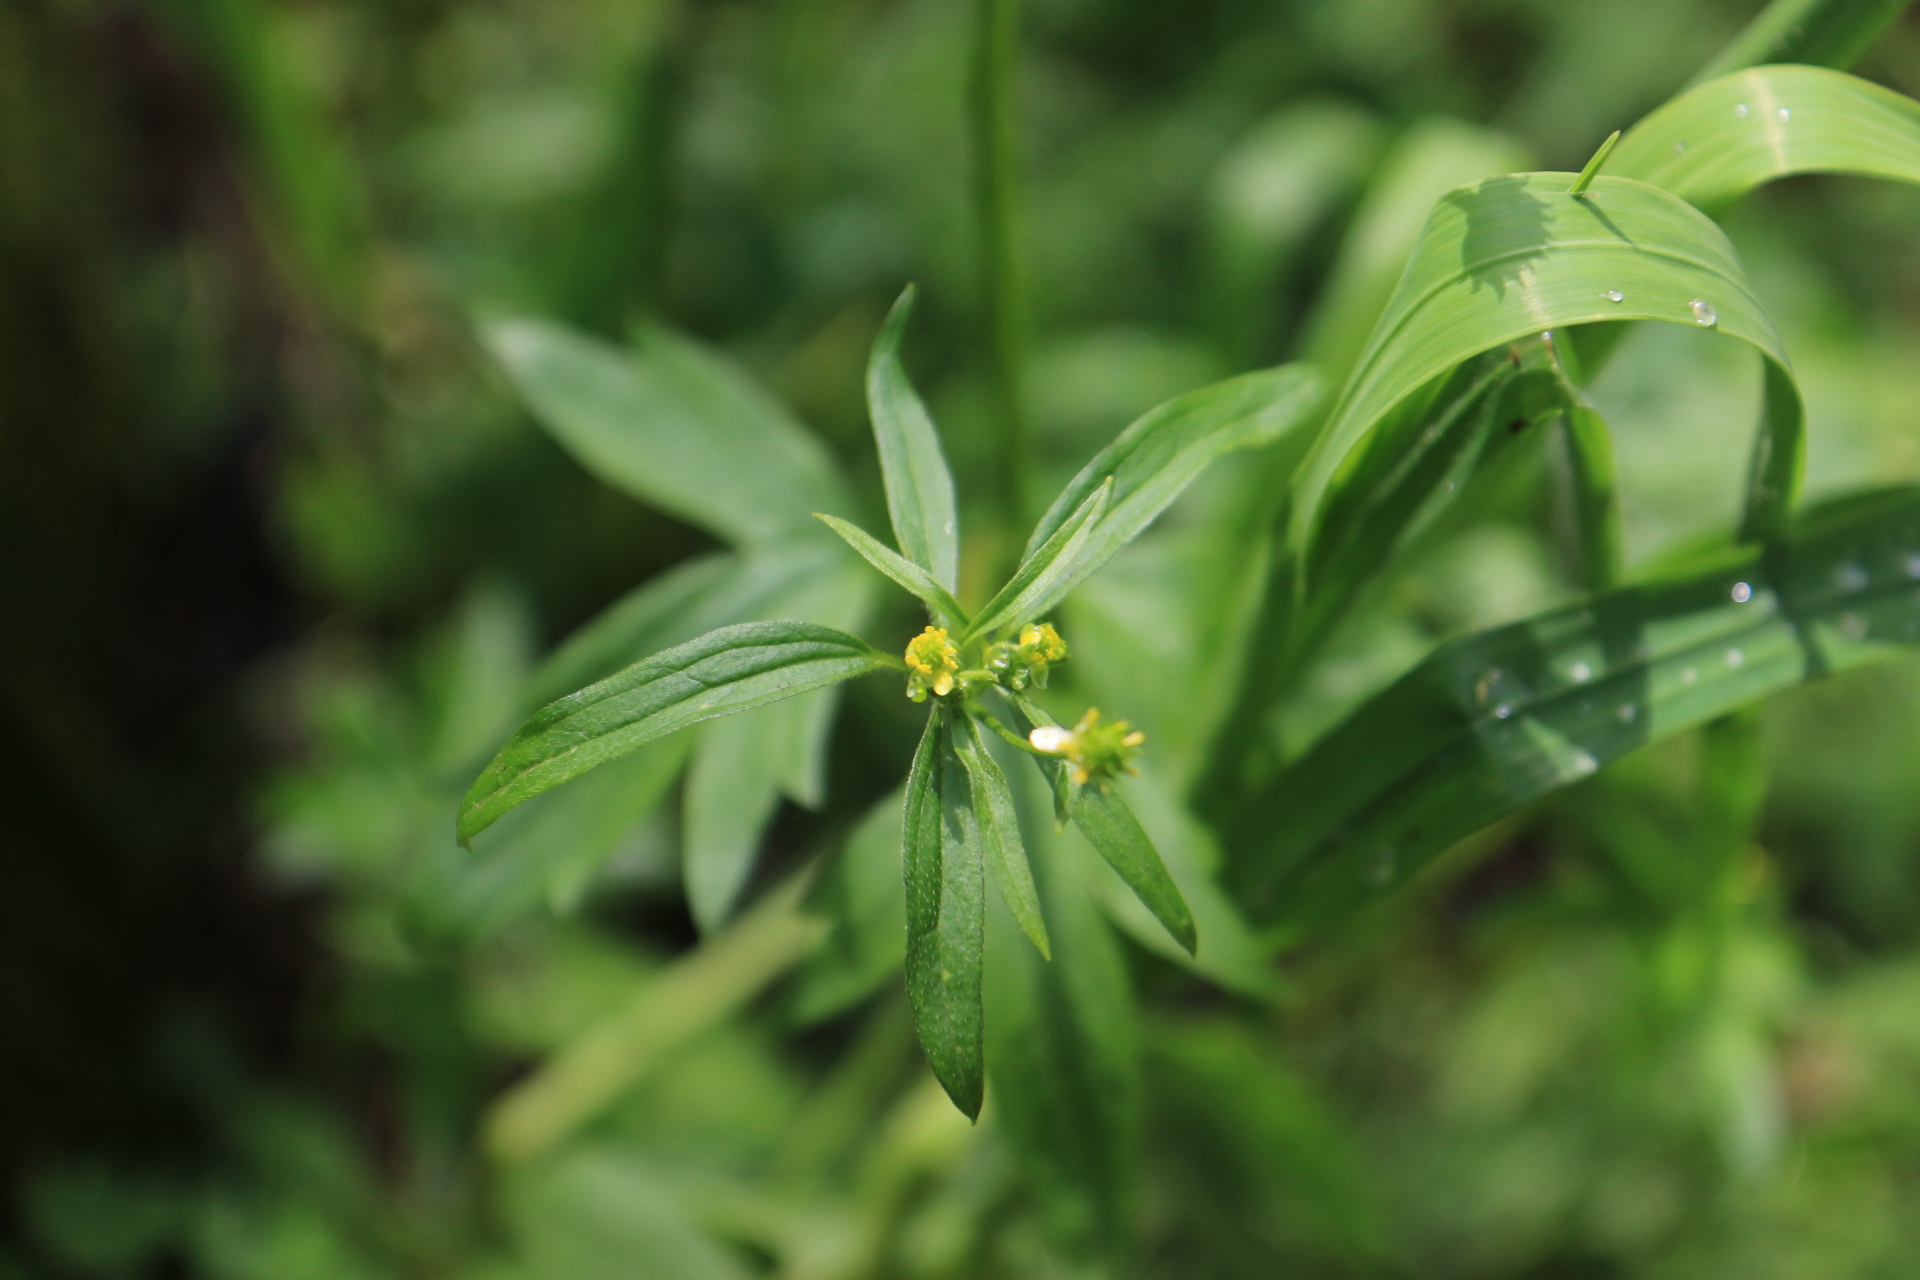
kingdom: Plantae
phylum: Tracheophyta
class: Magnoliopsida
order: Ranunculales
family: Ranunculaceae
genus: Ranunculus
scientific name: Ranunculus uncinatus
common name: Little buttercup
